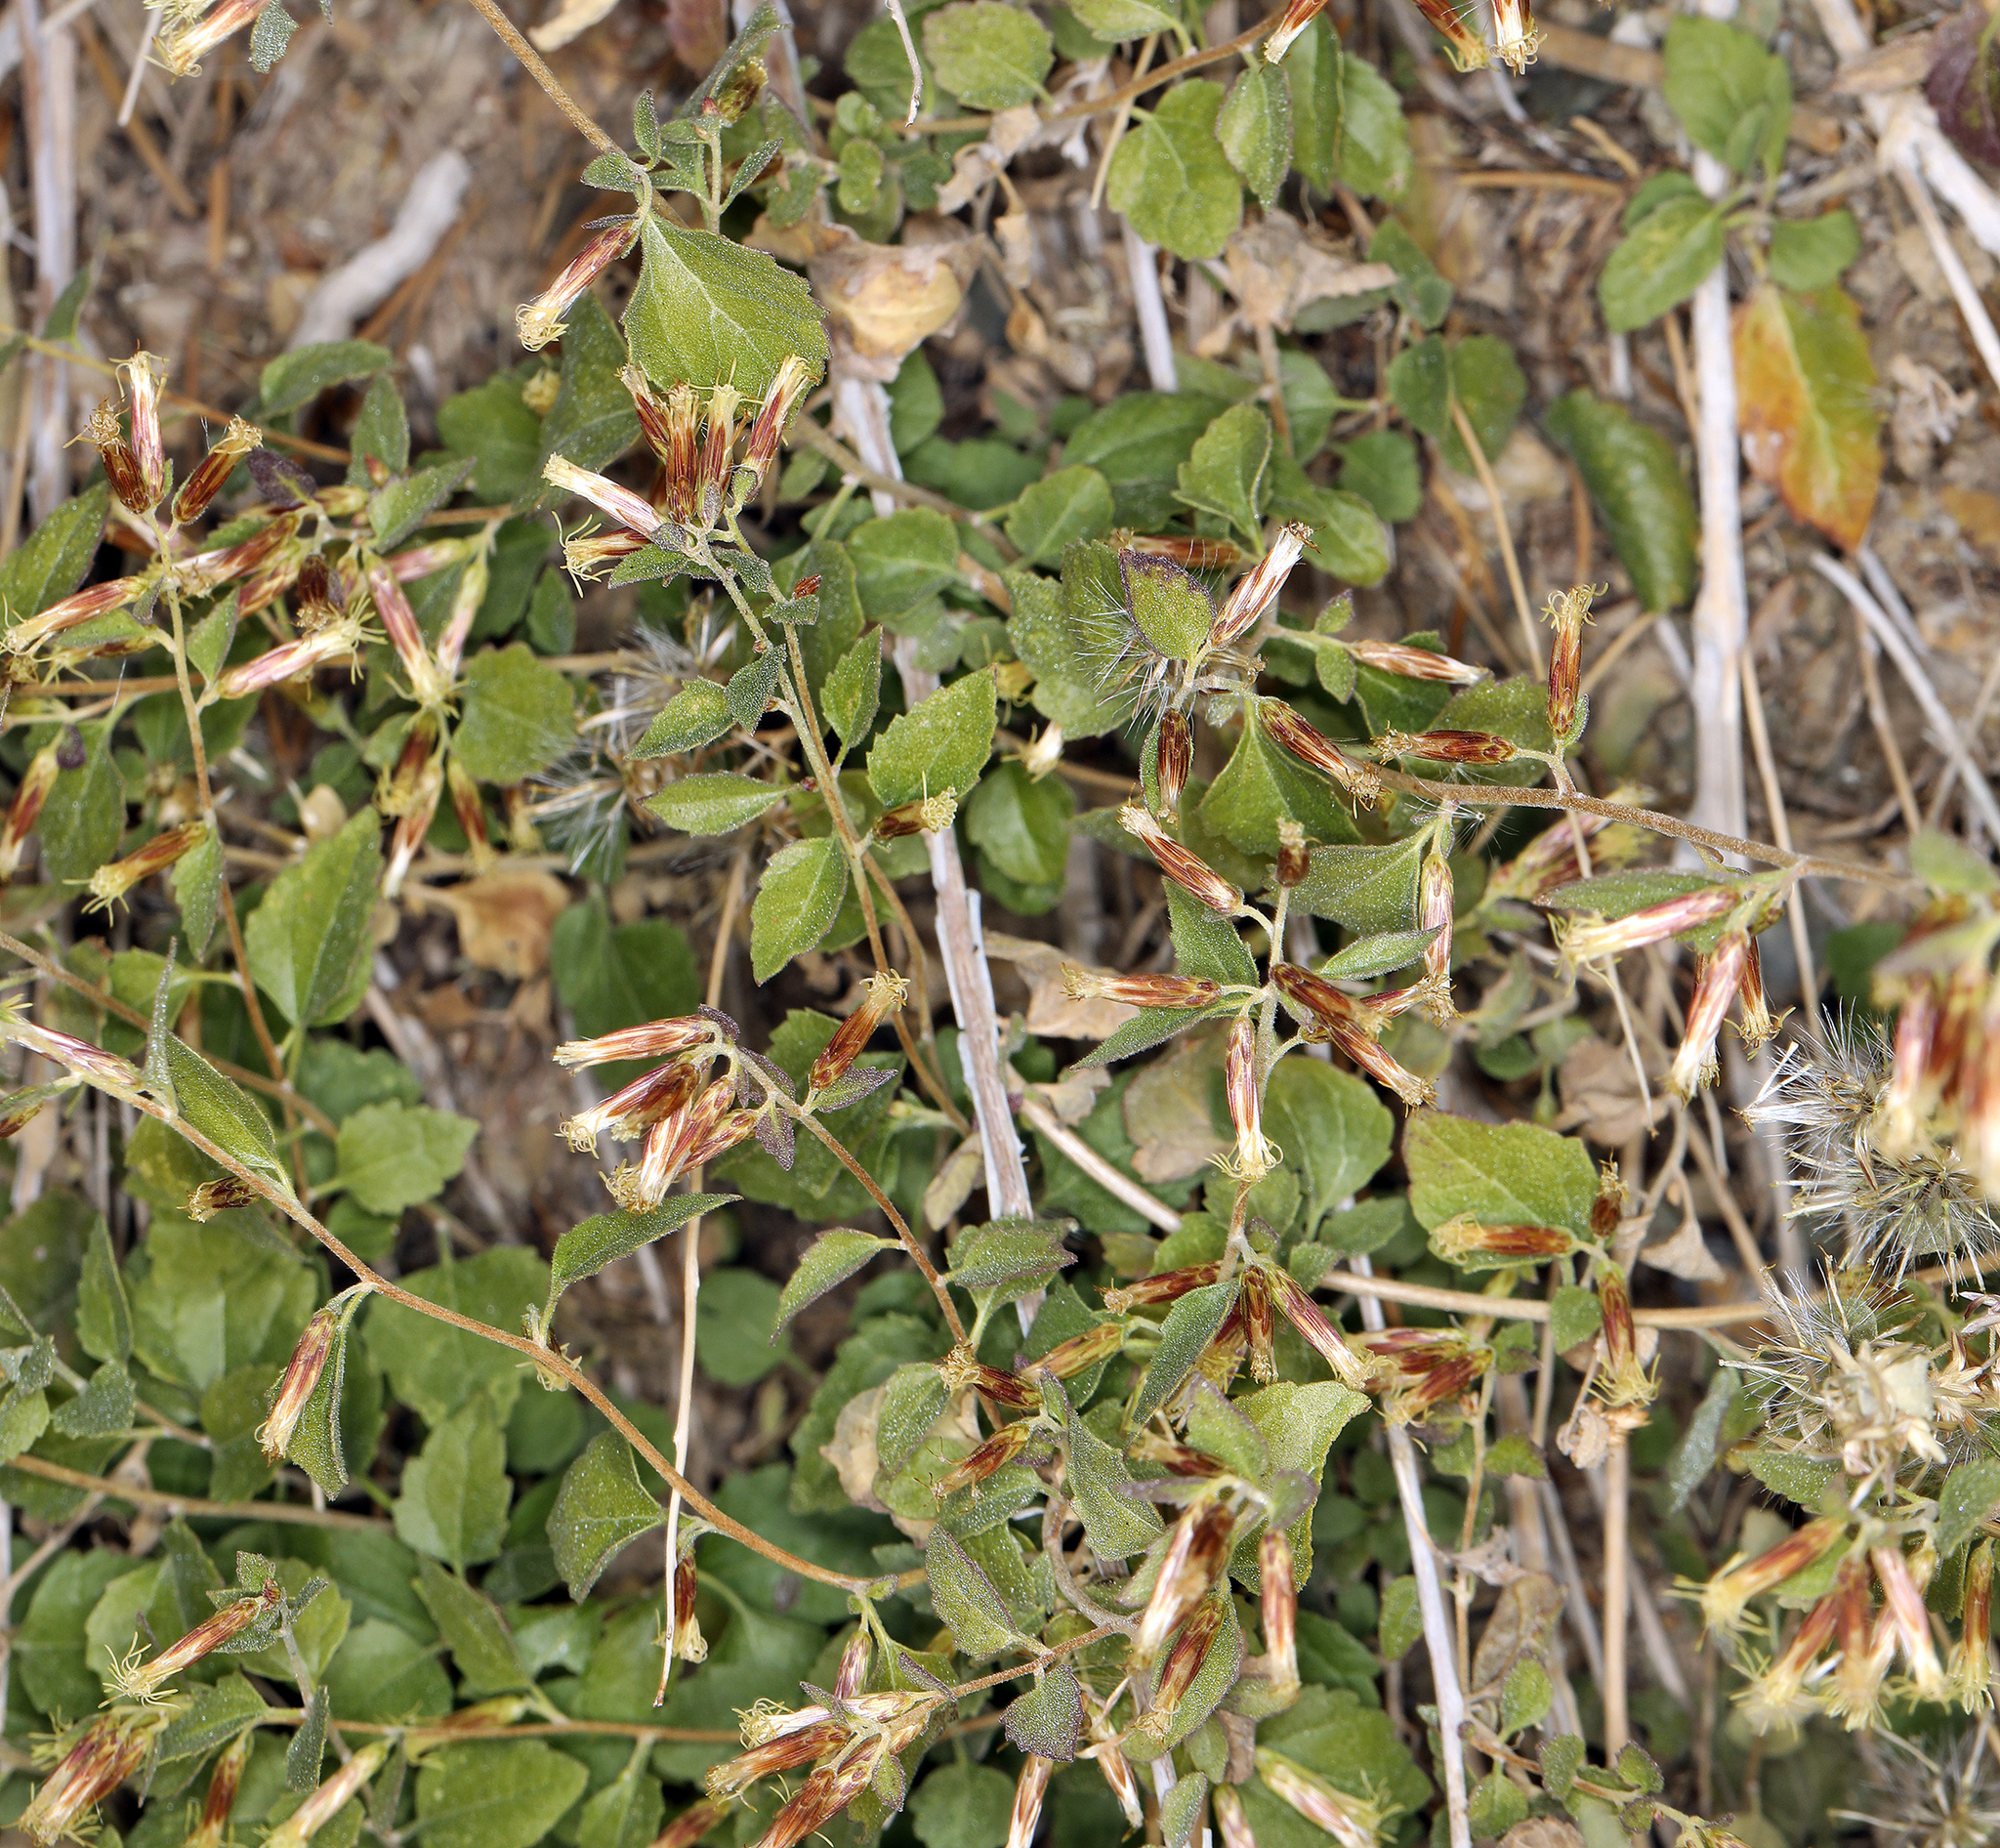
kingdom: Plantae
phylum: Tracheophyta
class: Magnoliopsida
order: Asterales
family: Asteraceae
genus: Brickellia
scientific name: Brickellia californica
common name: California brickellbush
